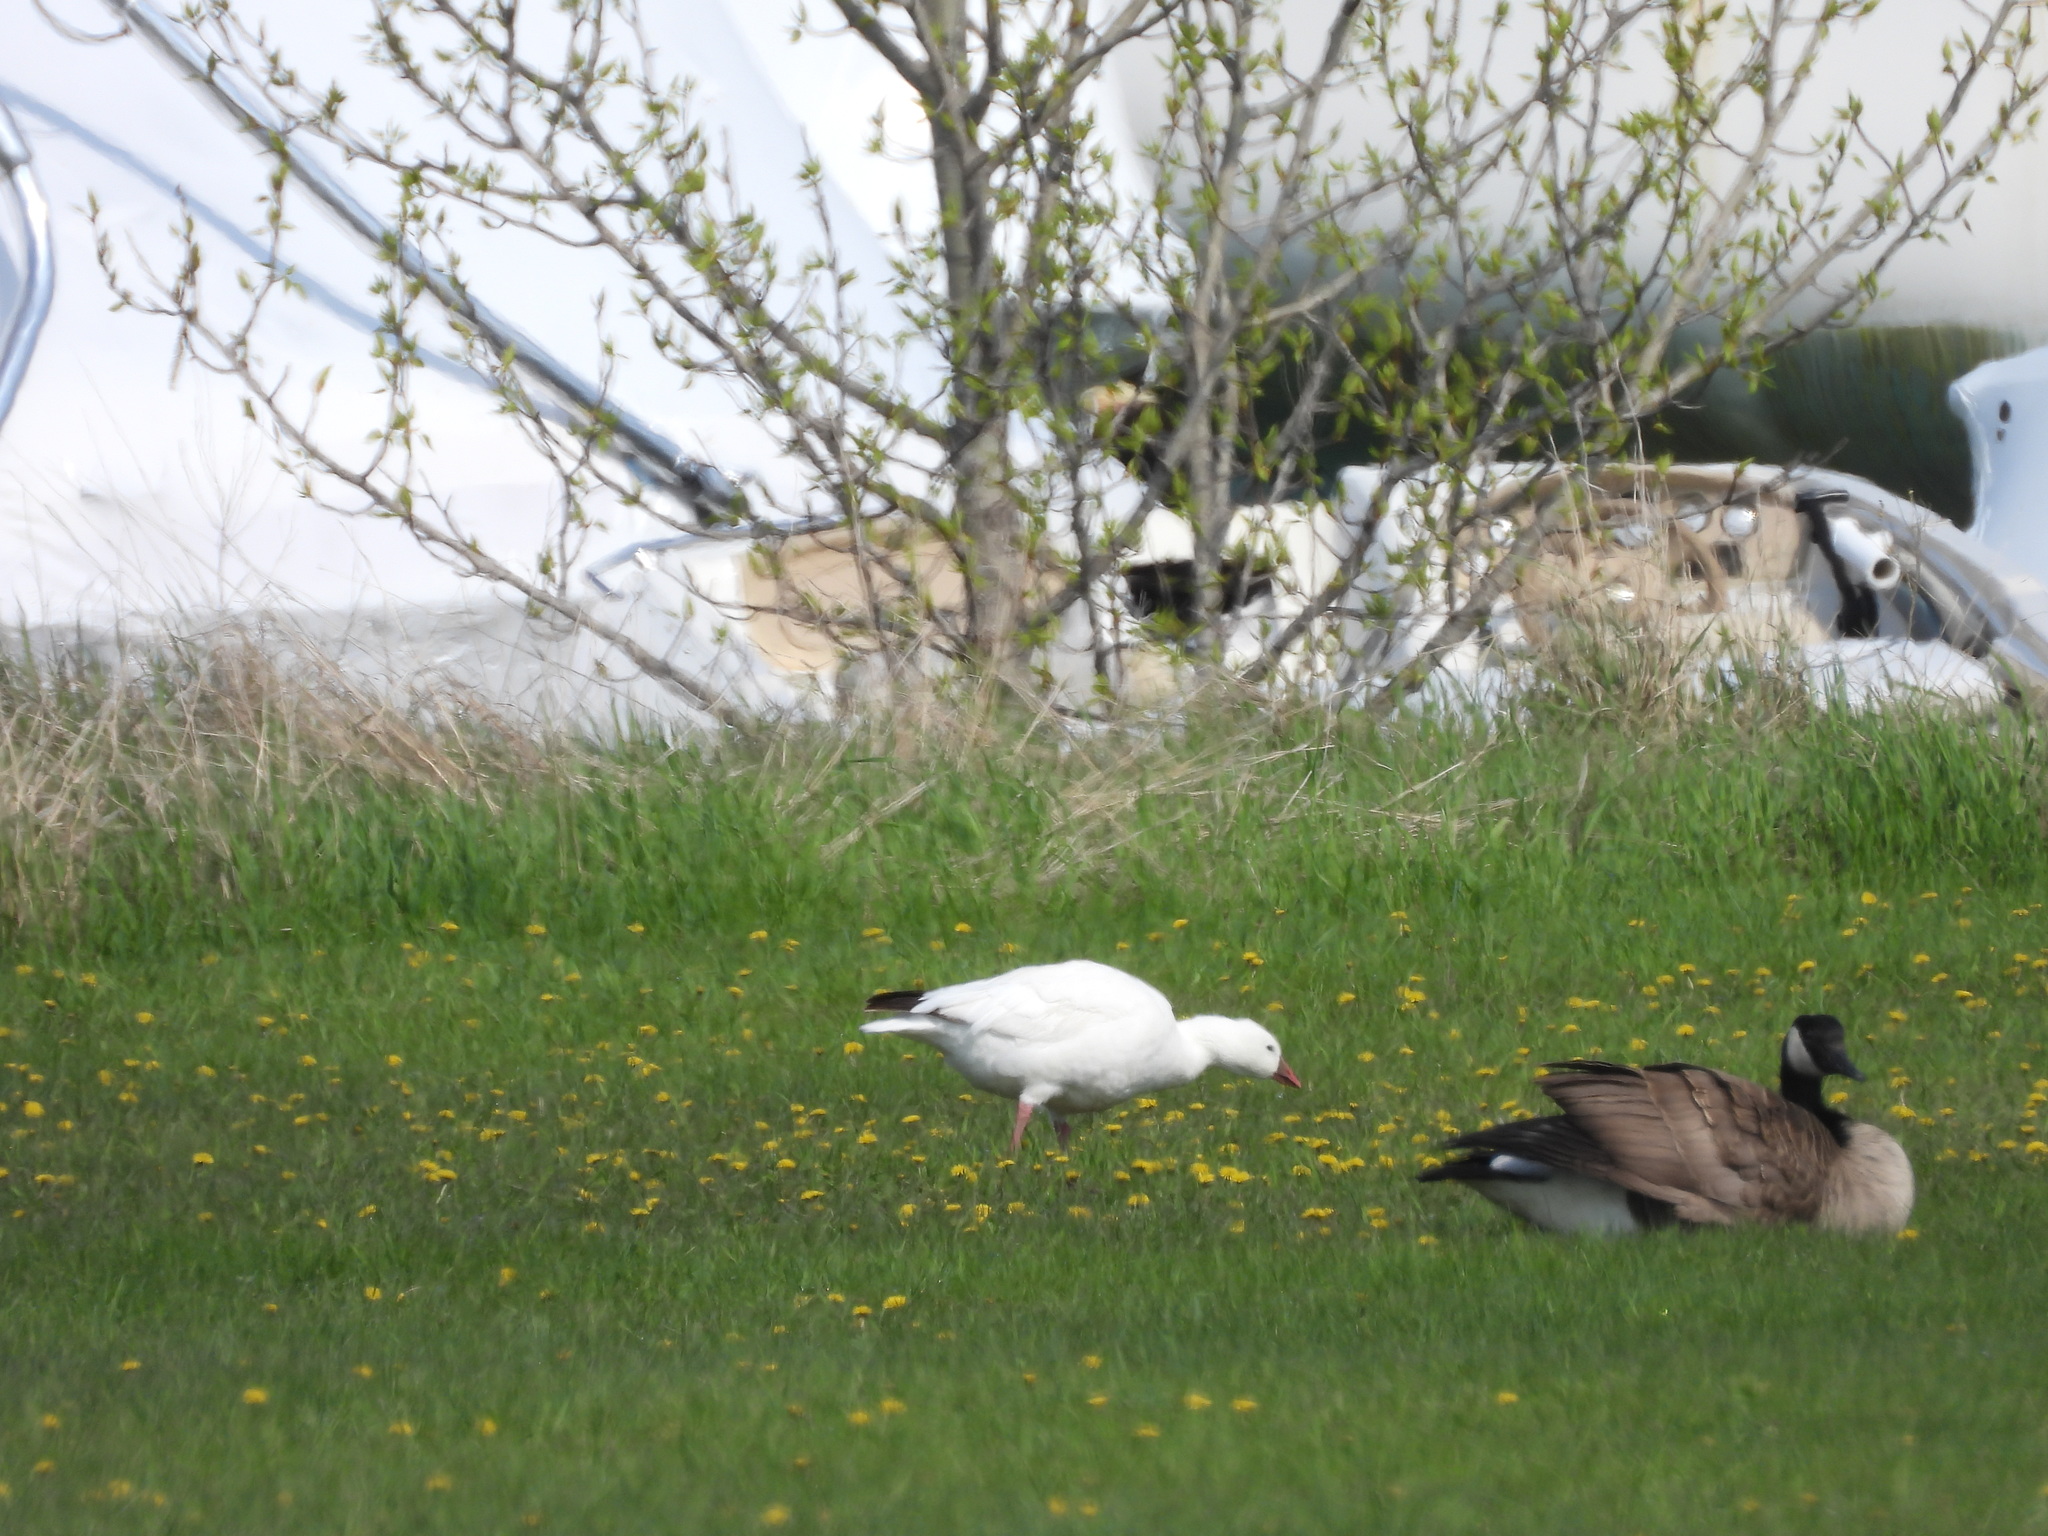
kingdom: Animalia
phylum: Chordata
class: Aves
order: Anseriformes
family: Anatidae
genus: Anser
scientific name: Anser caerulescens
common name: Snow goose
